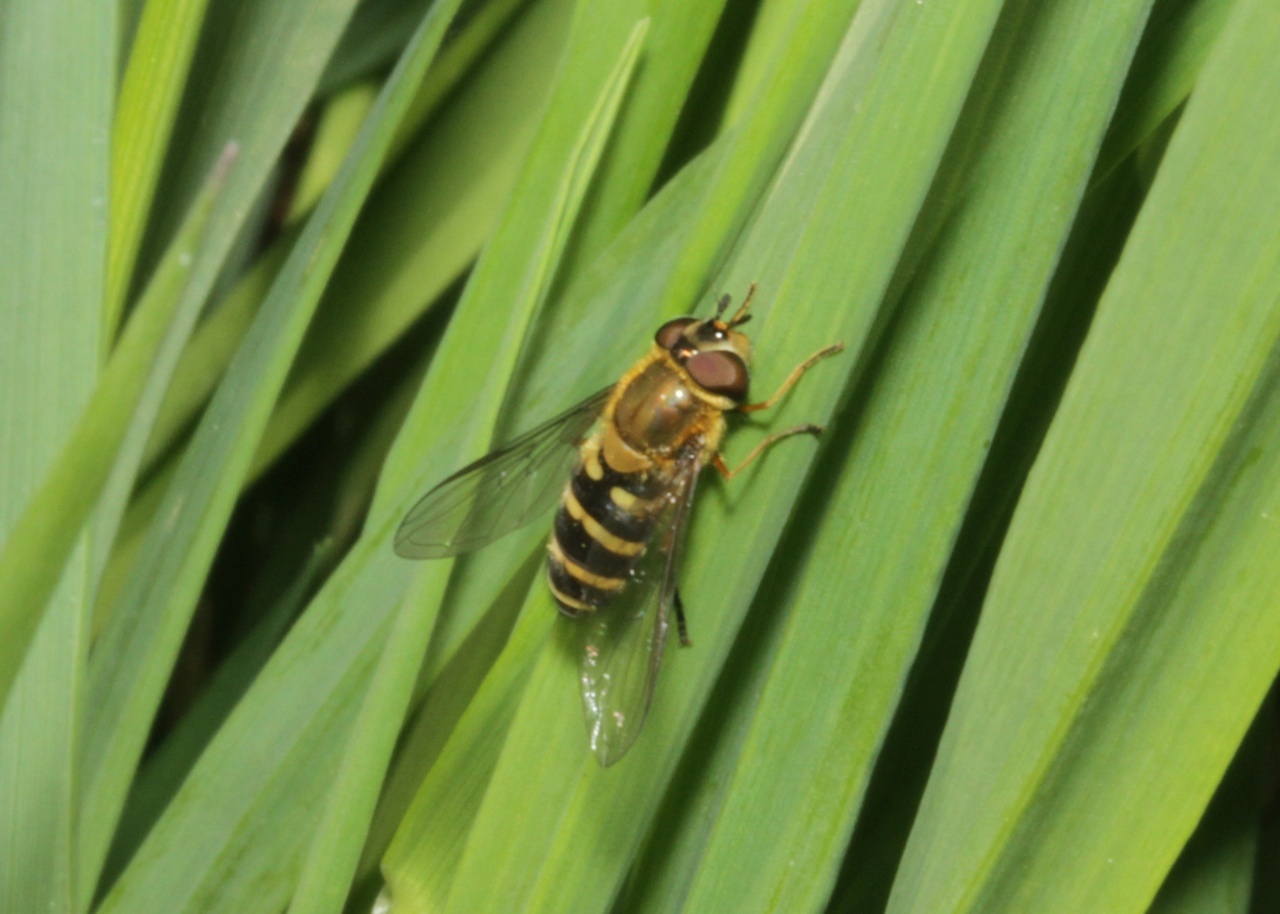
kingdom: Animalia
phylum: Arthropoda
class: Insecta
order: Diptera
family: Syrphidae
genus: Syrphus
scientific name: Syrphus
